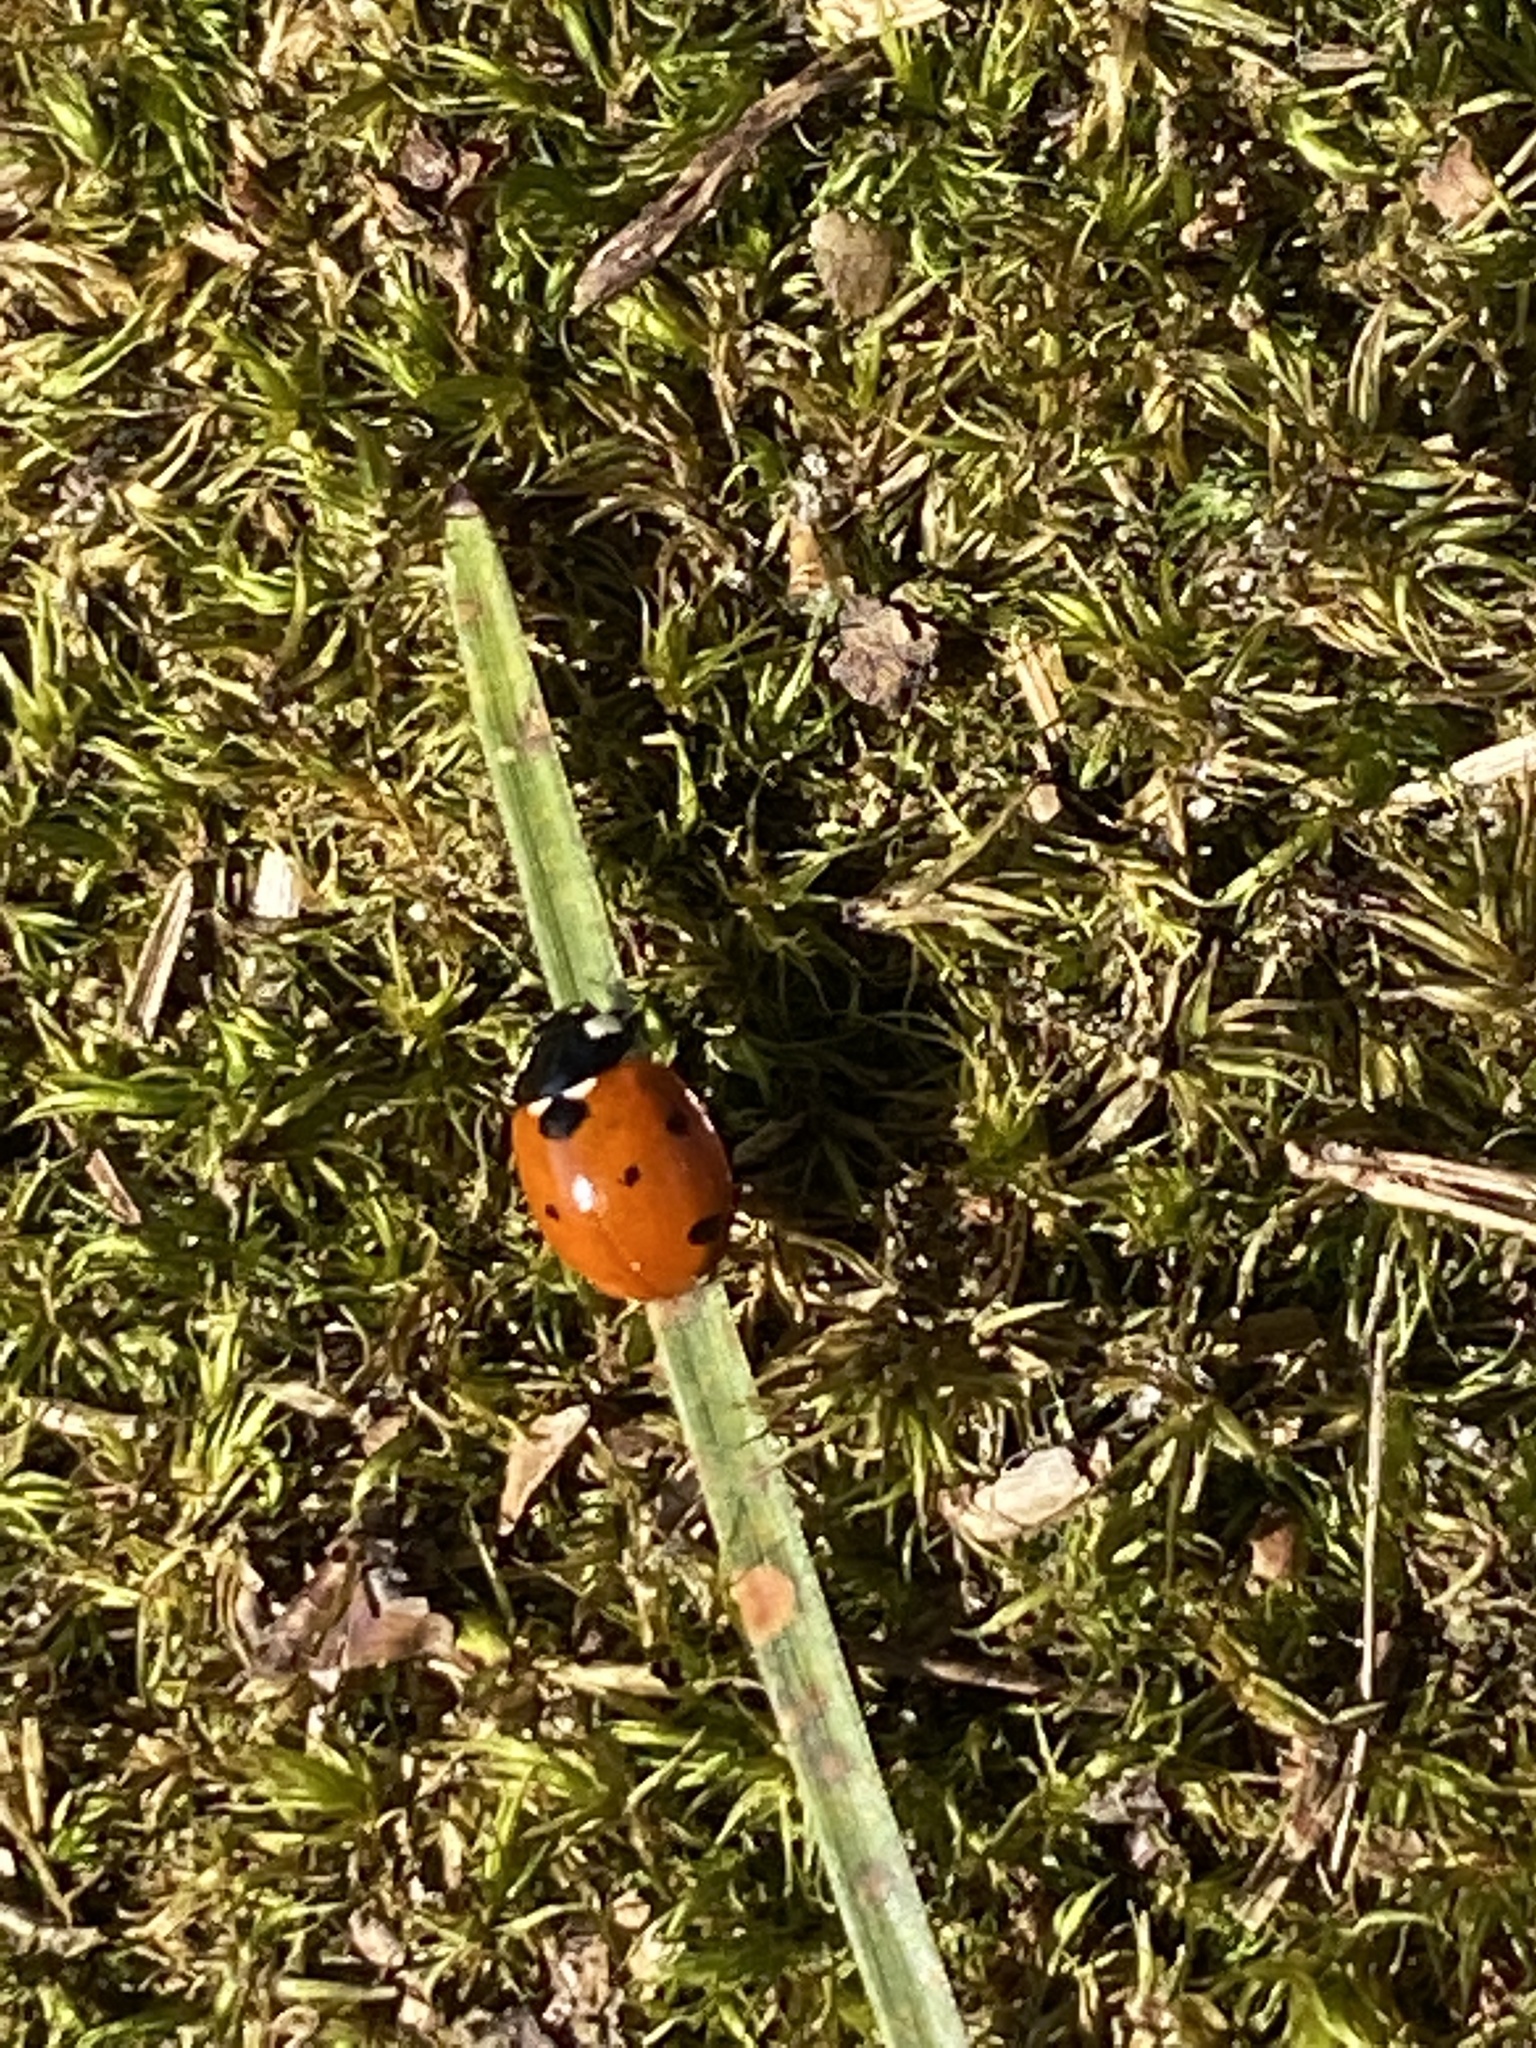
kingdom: Animalia
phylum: Arthropoda
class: Insecta
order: Coleoptera
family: Coccinellidae
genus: Coccinella
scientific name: Coccinella septempunctata
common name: Sevenspotted lady beetle
